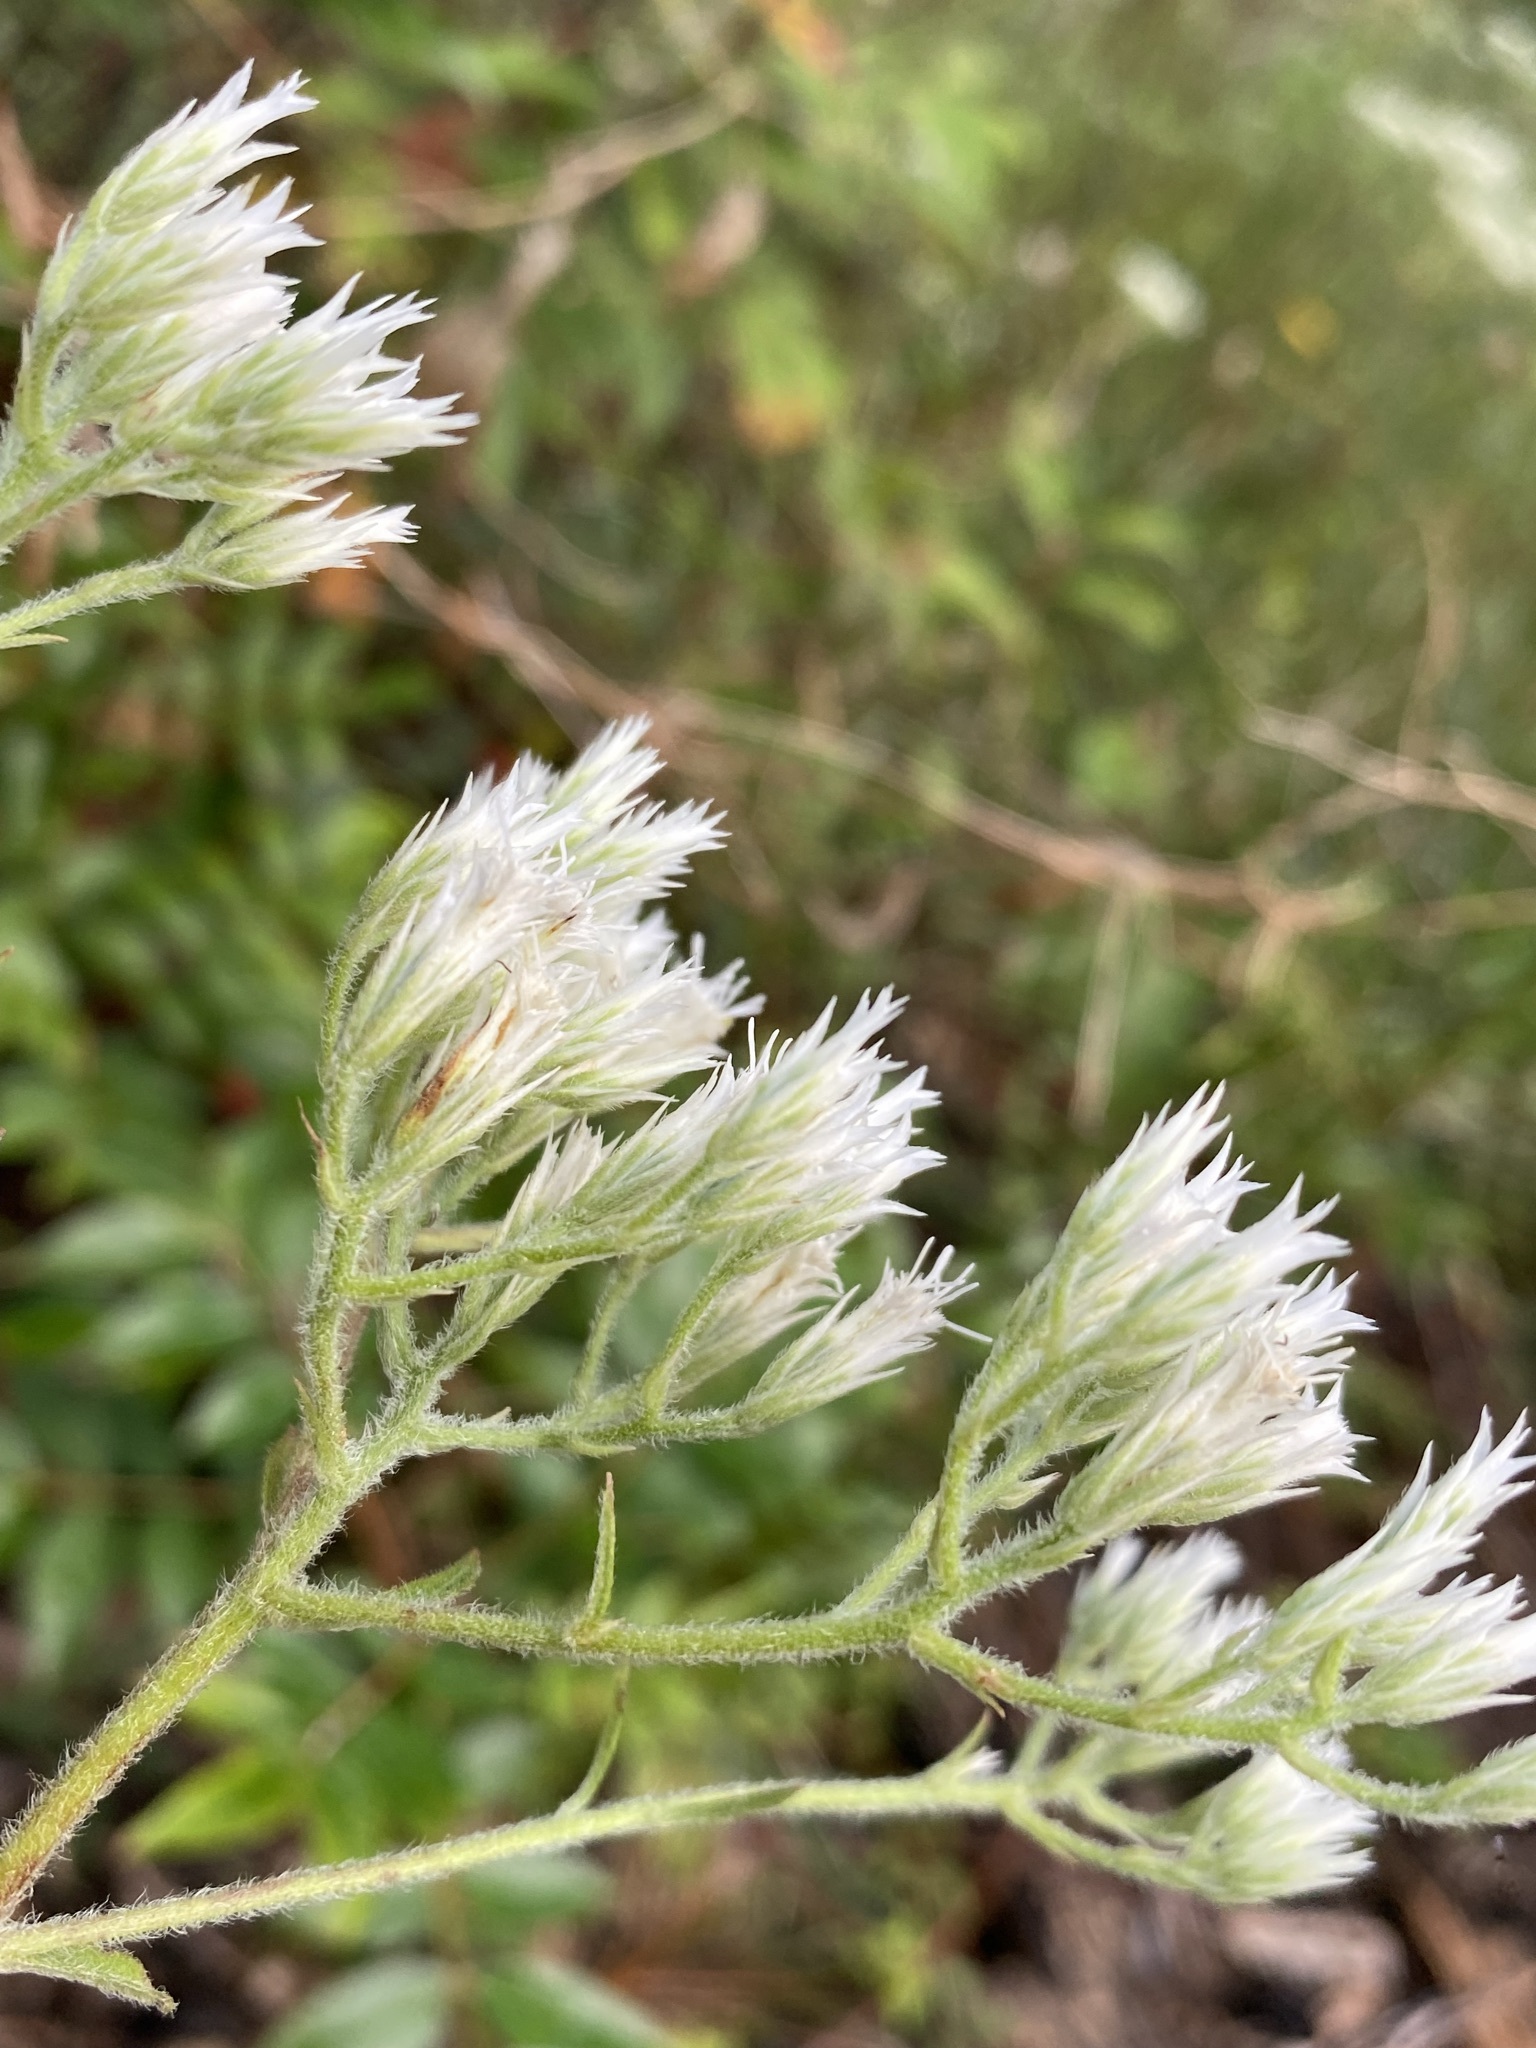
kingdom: Plantae
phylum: Tracheophyta
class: Magnoliopsida
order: Asterales
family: Asteraceae
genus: Eupatorium
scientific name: Eupatorium album
